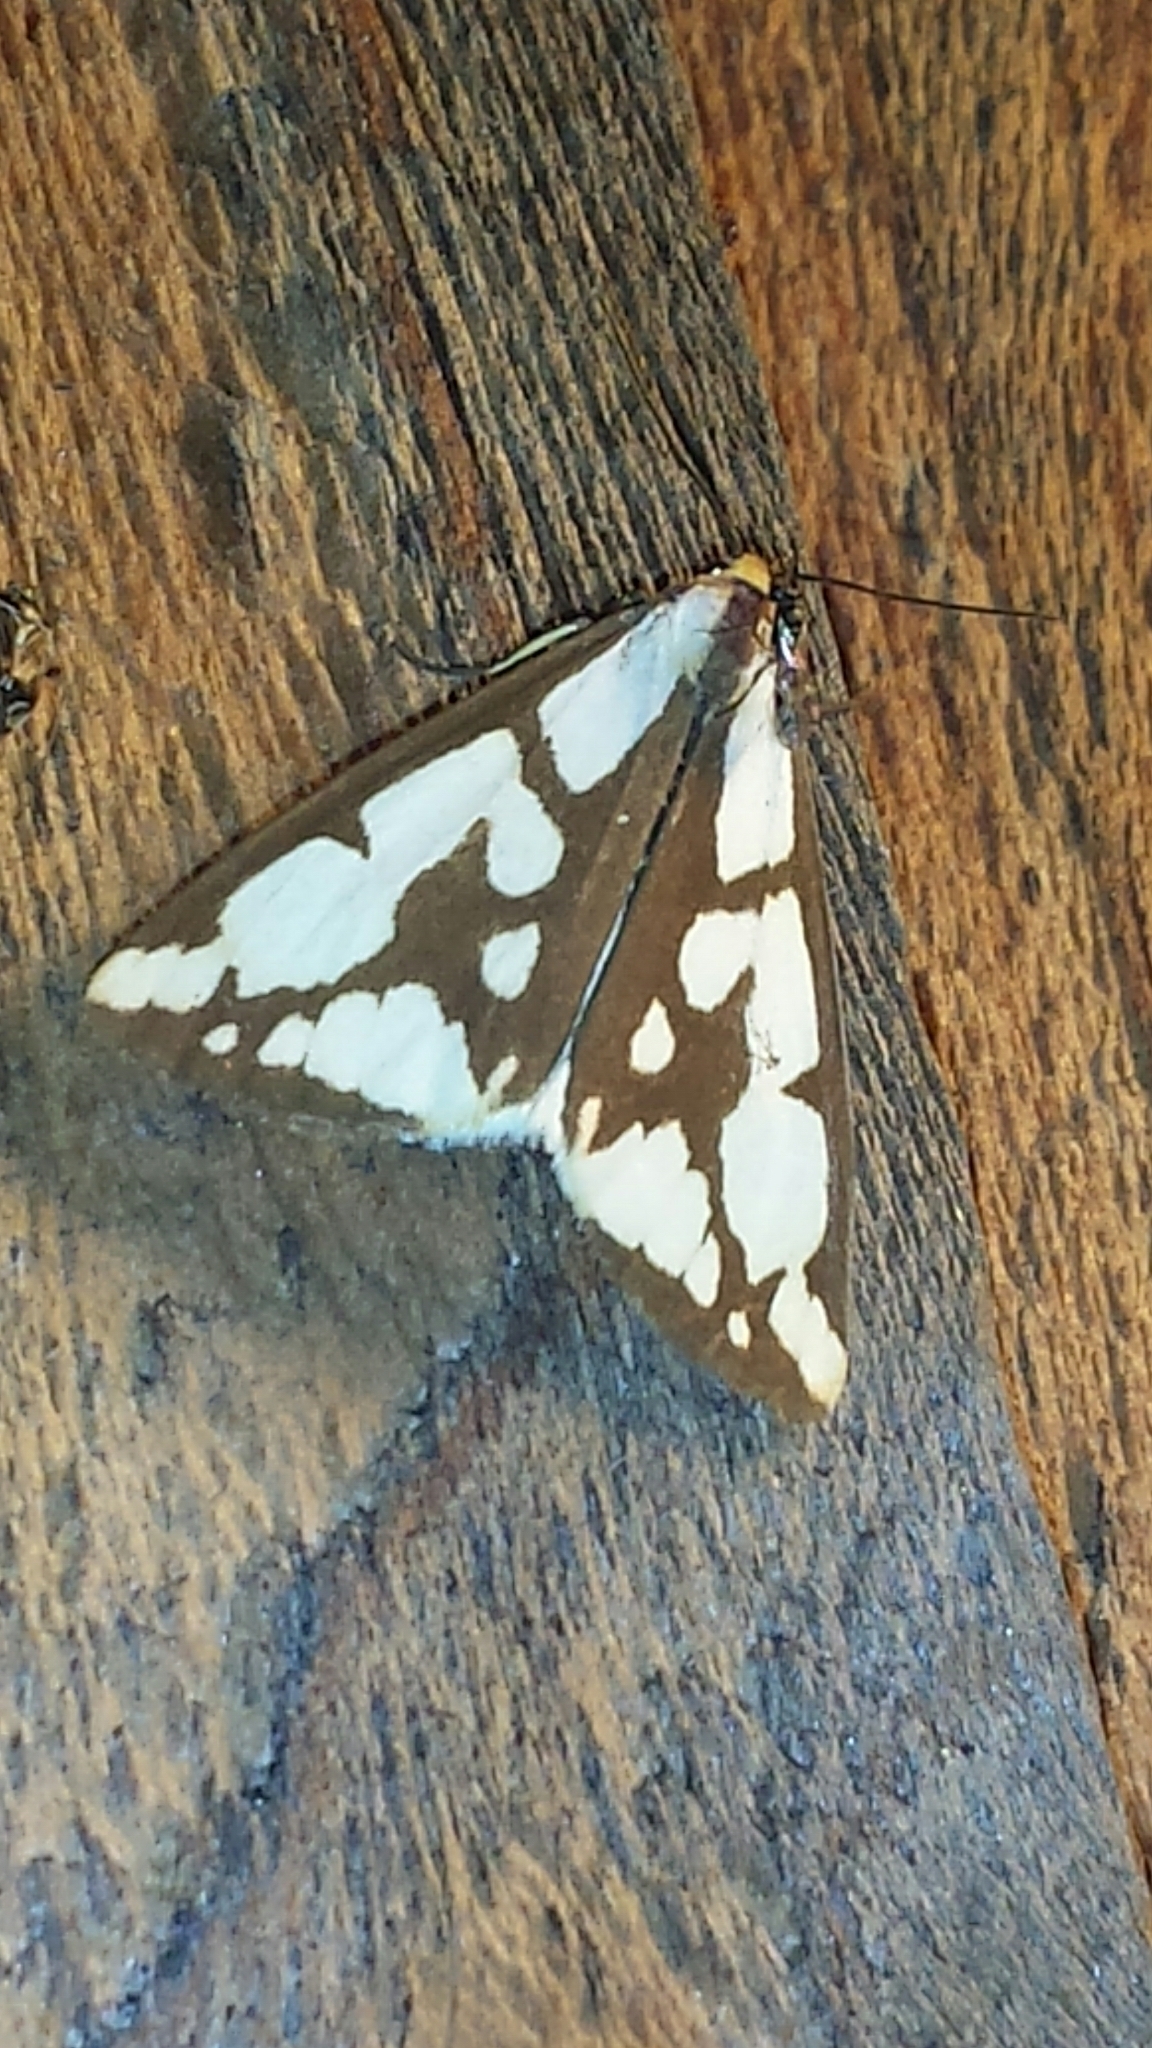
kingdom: Animalia
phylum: Arthropoda
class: Insecta
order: Lepidoptera
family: Erebidae
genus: Haploa
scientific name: Haploa confusa
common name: Confused haploa moth
